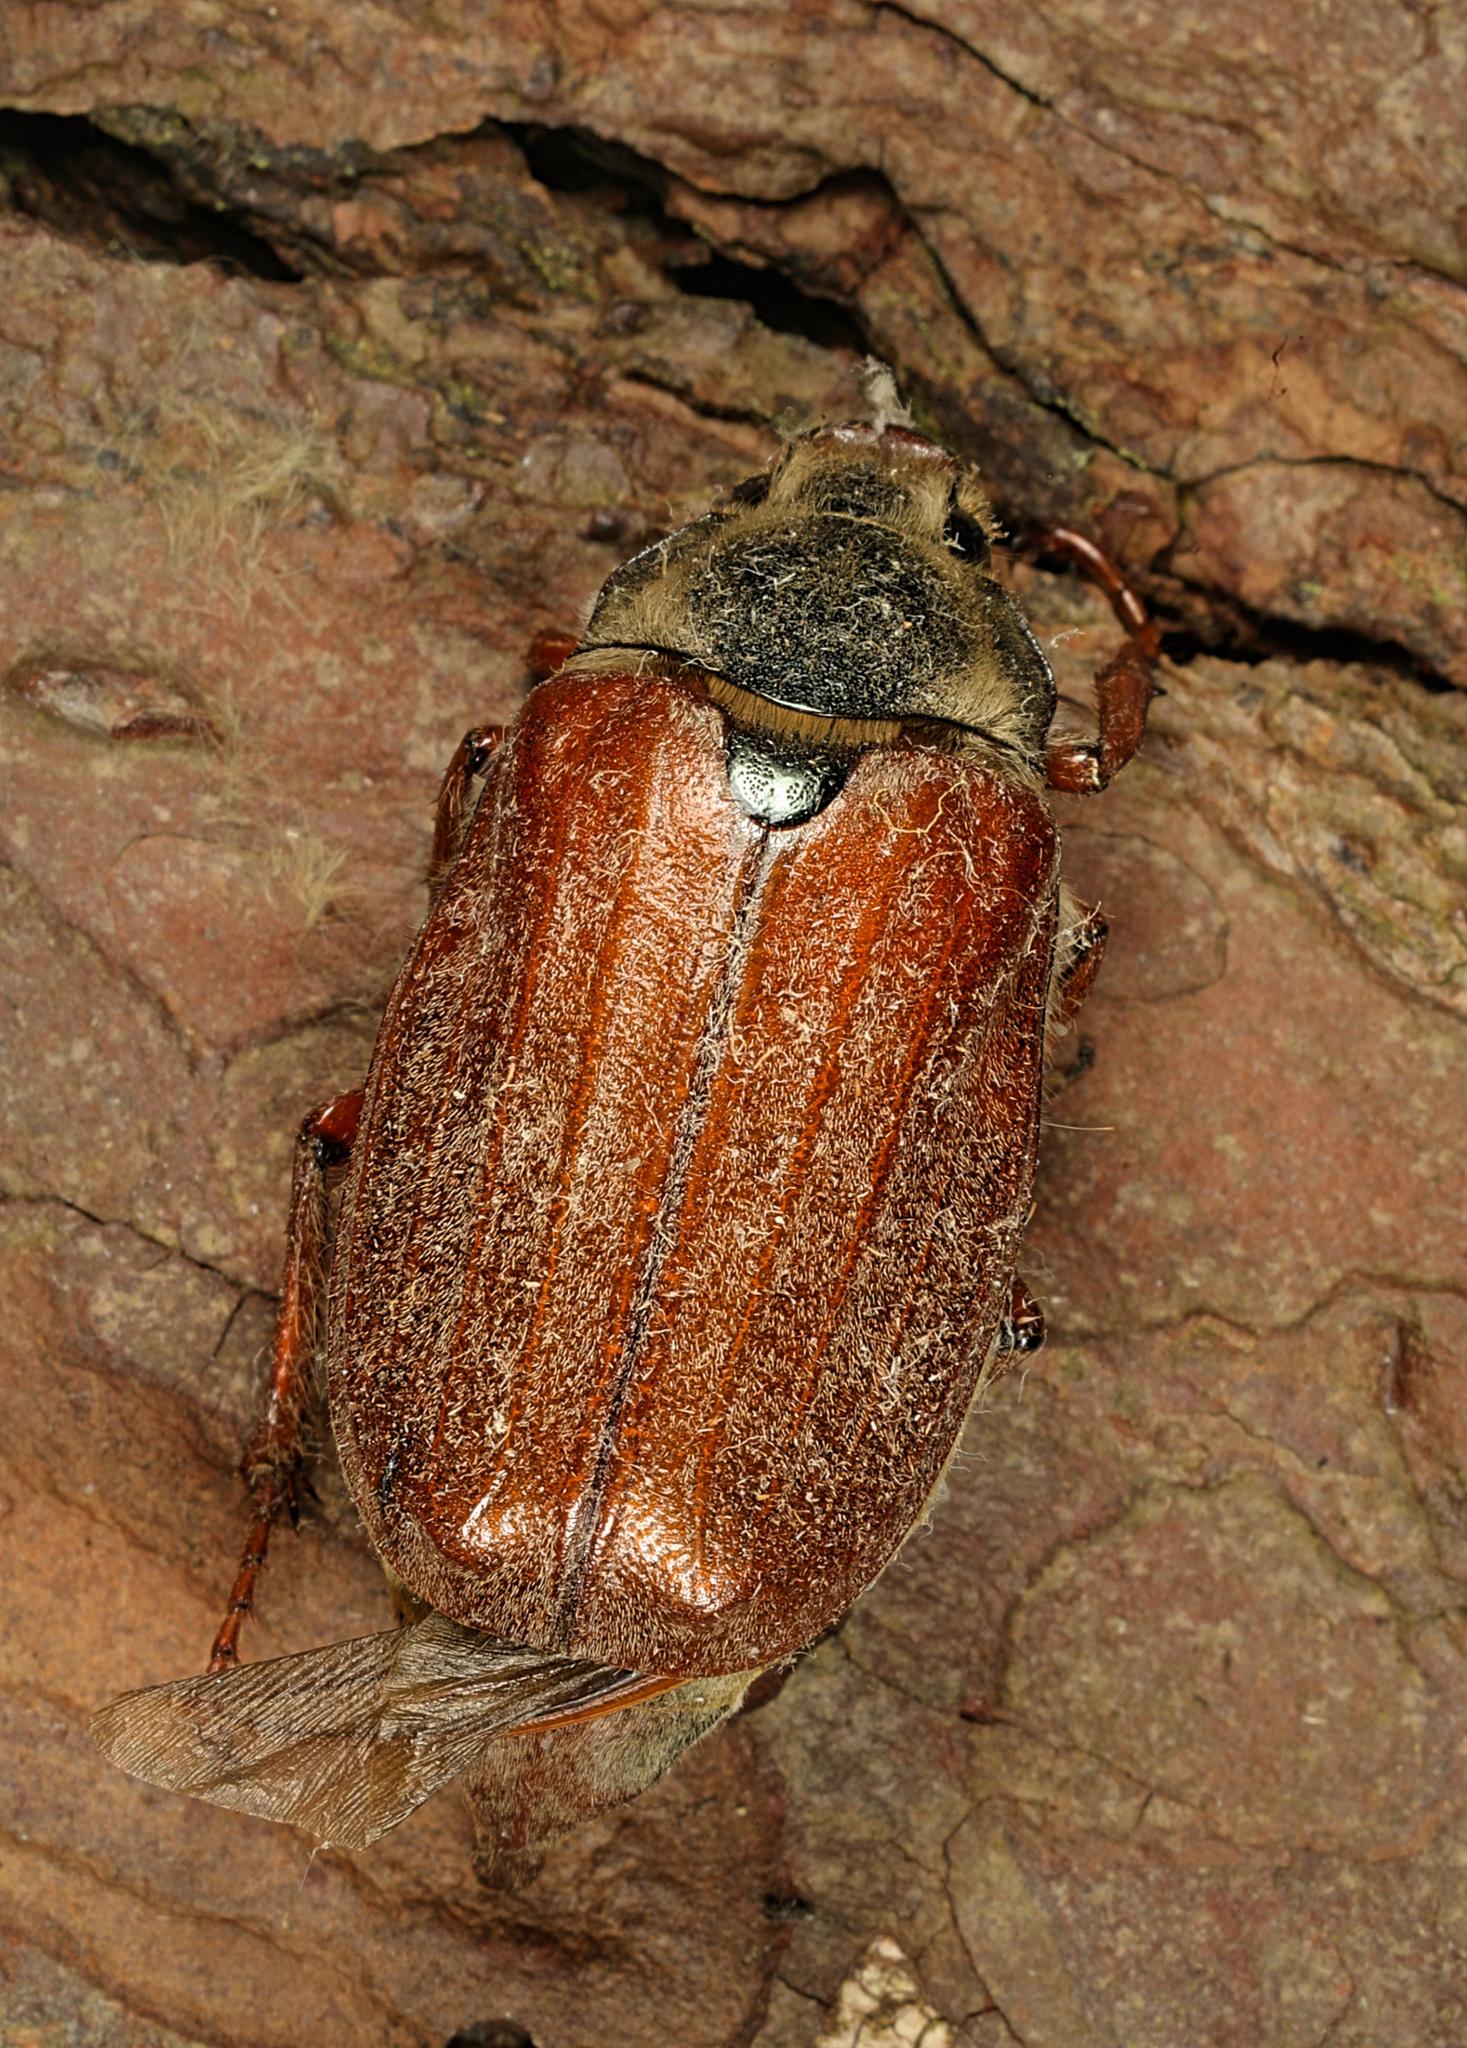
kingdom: Animalia
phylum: Arthropoda
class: Insecta
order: Coleoptera
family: Scarabaeidae
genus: Melolontha
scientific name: Melolontha melolontha
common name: Cockchafer maybeetle
